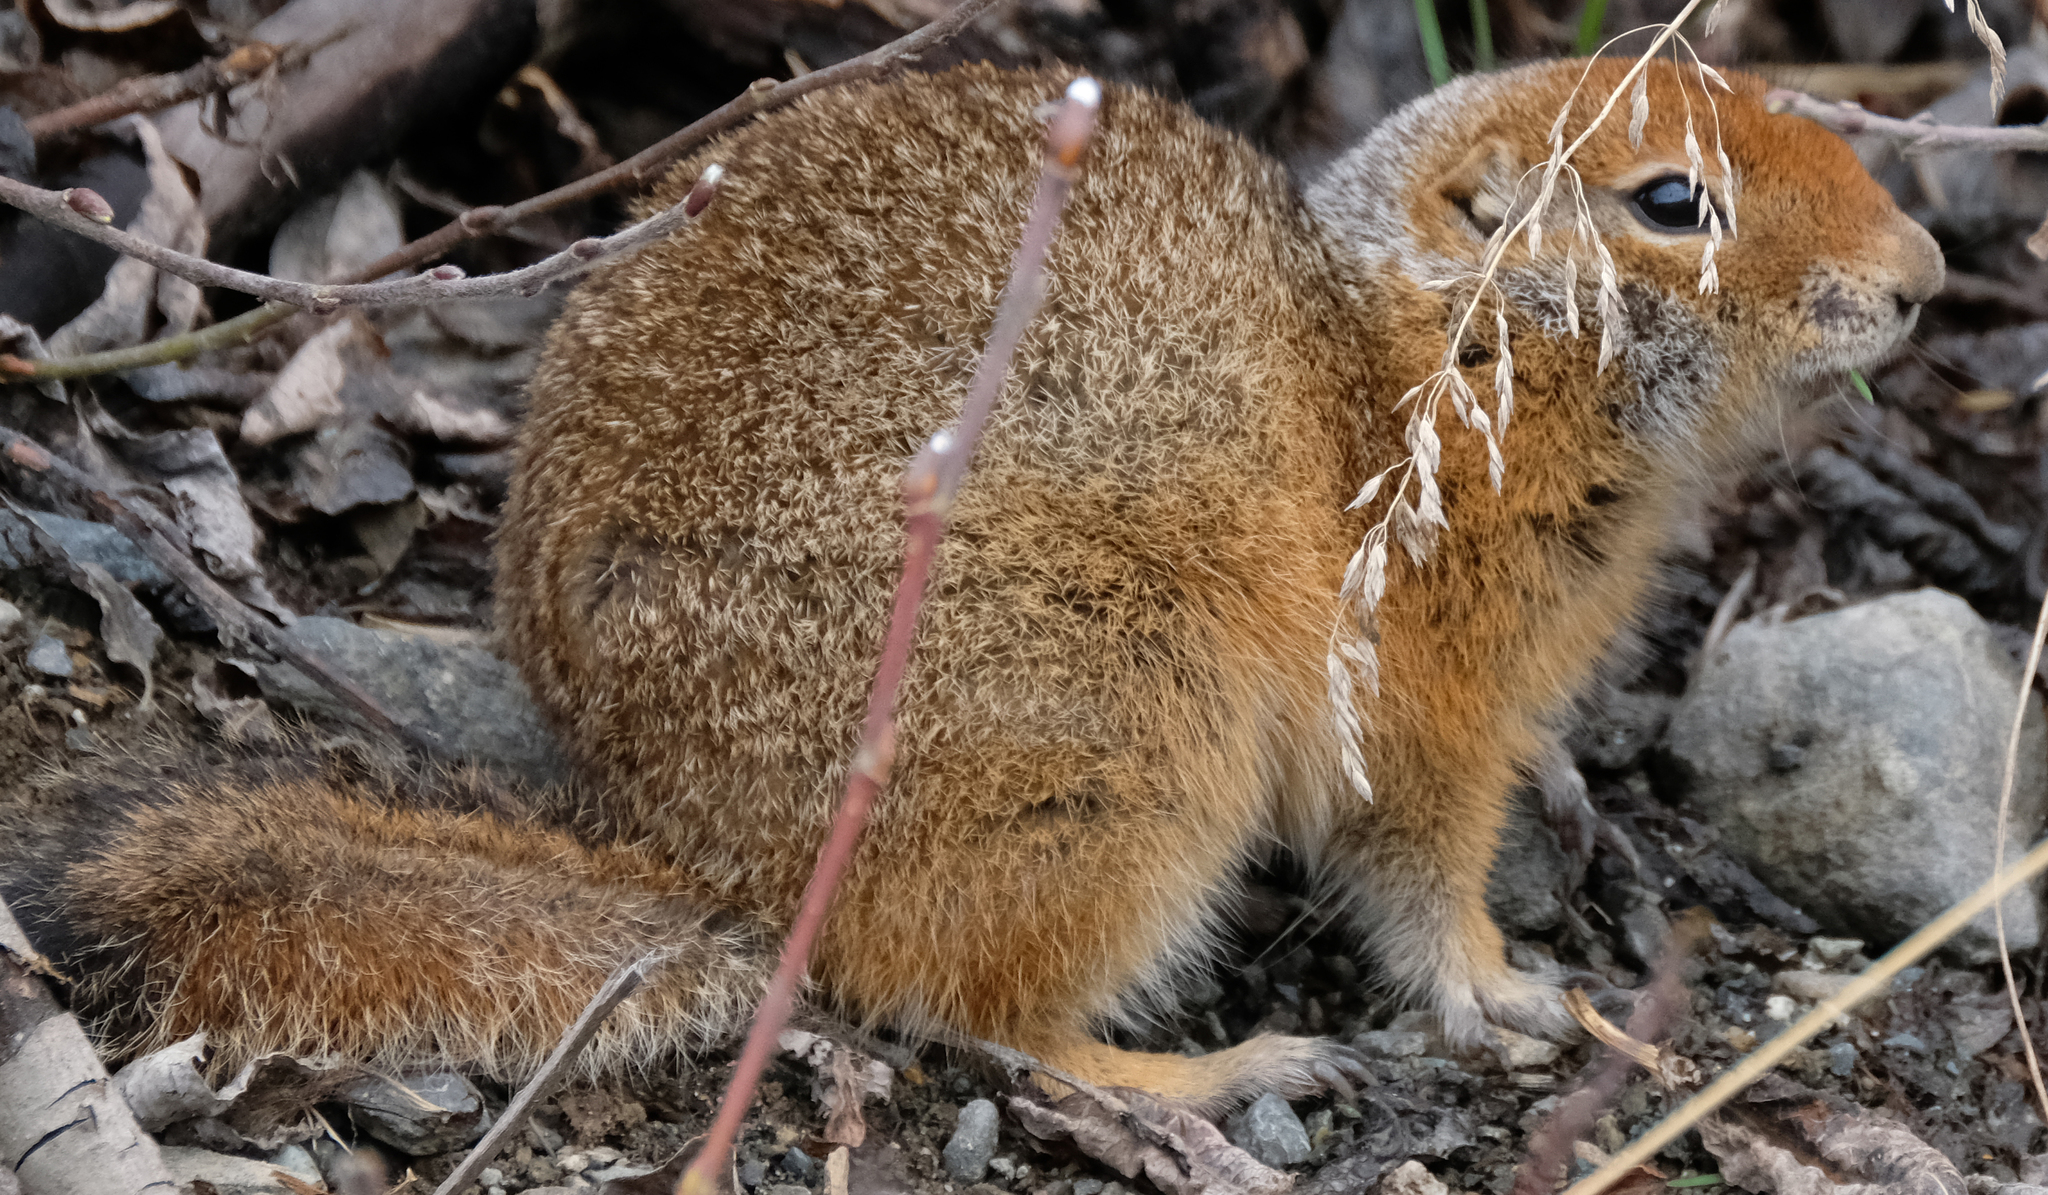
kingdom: Animalia
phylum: Chordata
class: Mammalia
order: Rodentia
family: Sciuridae
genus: Urocitellus
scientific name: Urocitellus parryii
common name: Arctic ground squirrel
